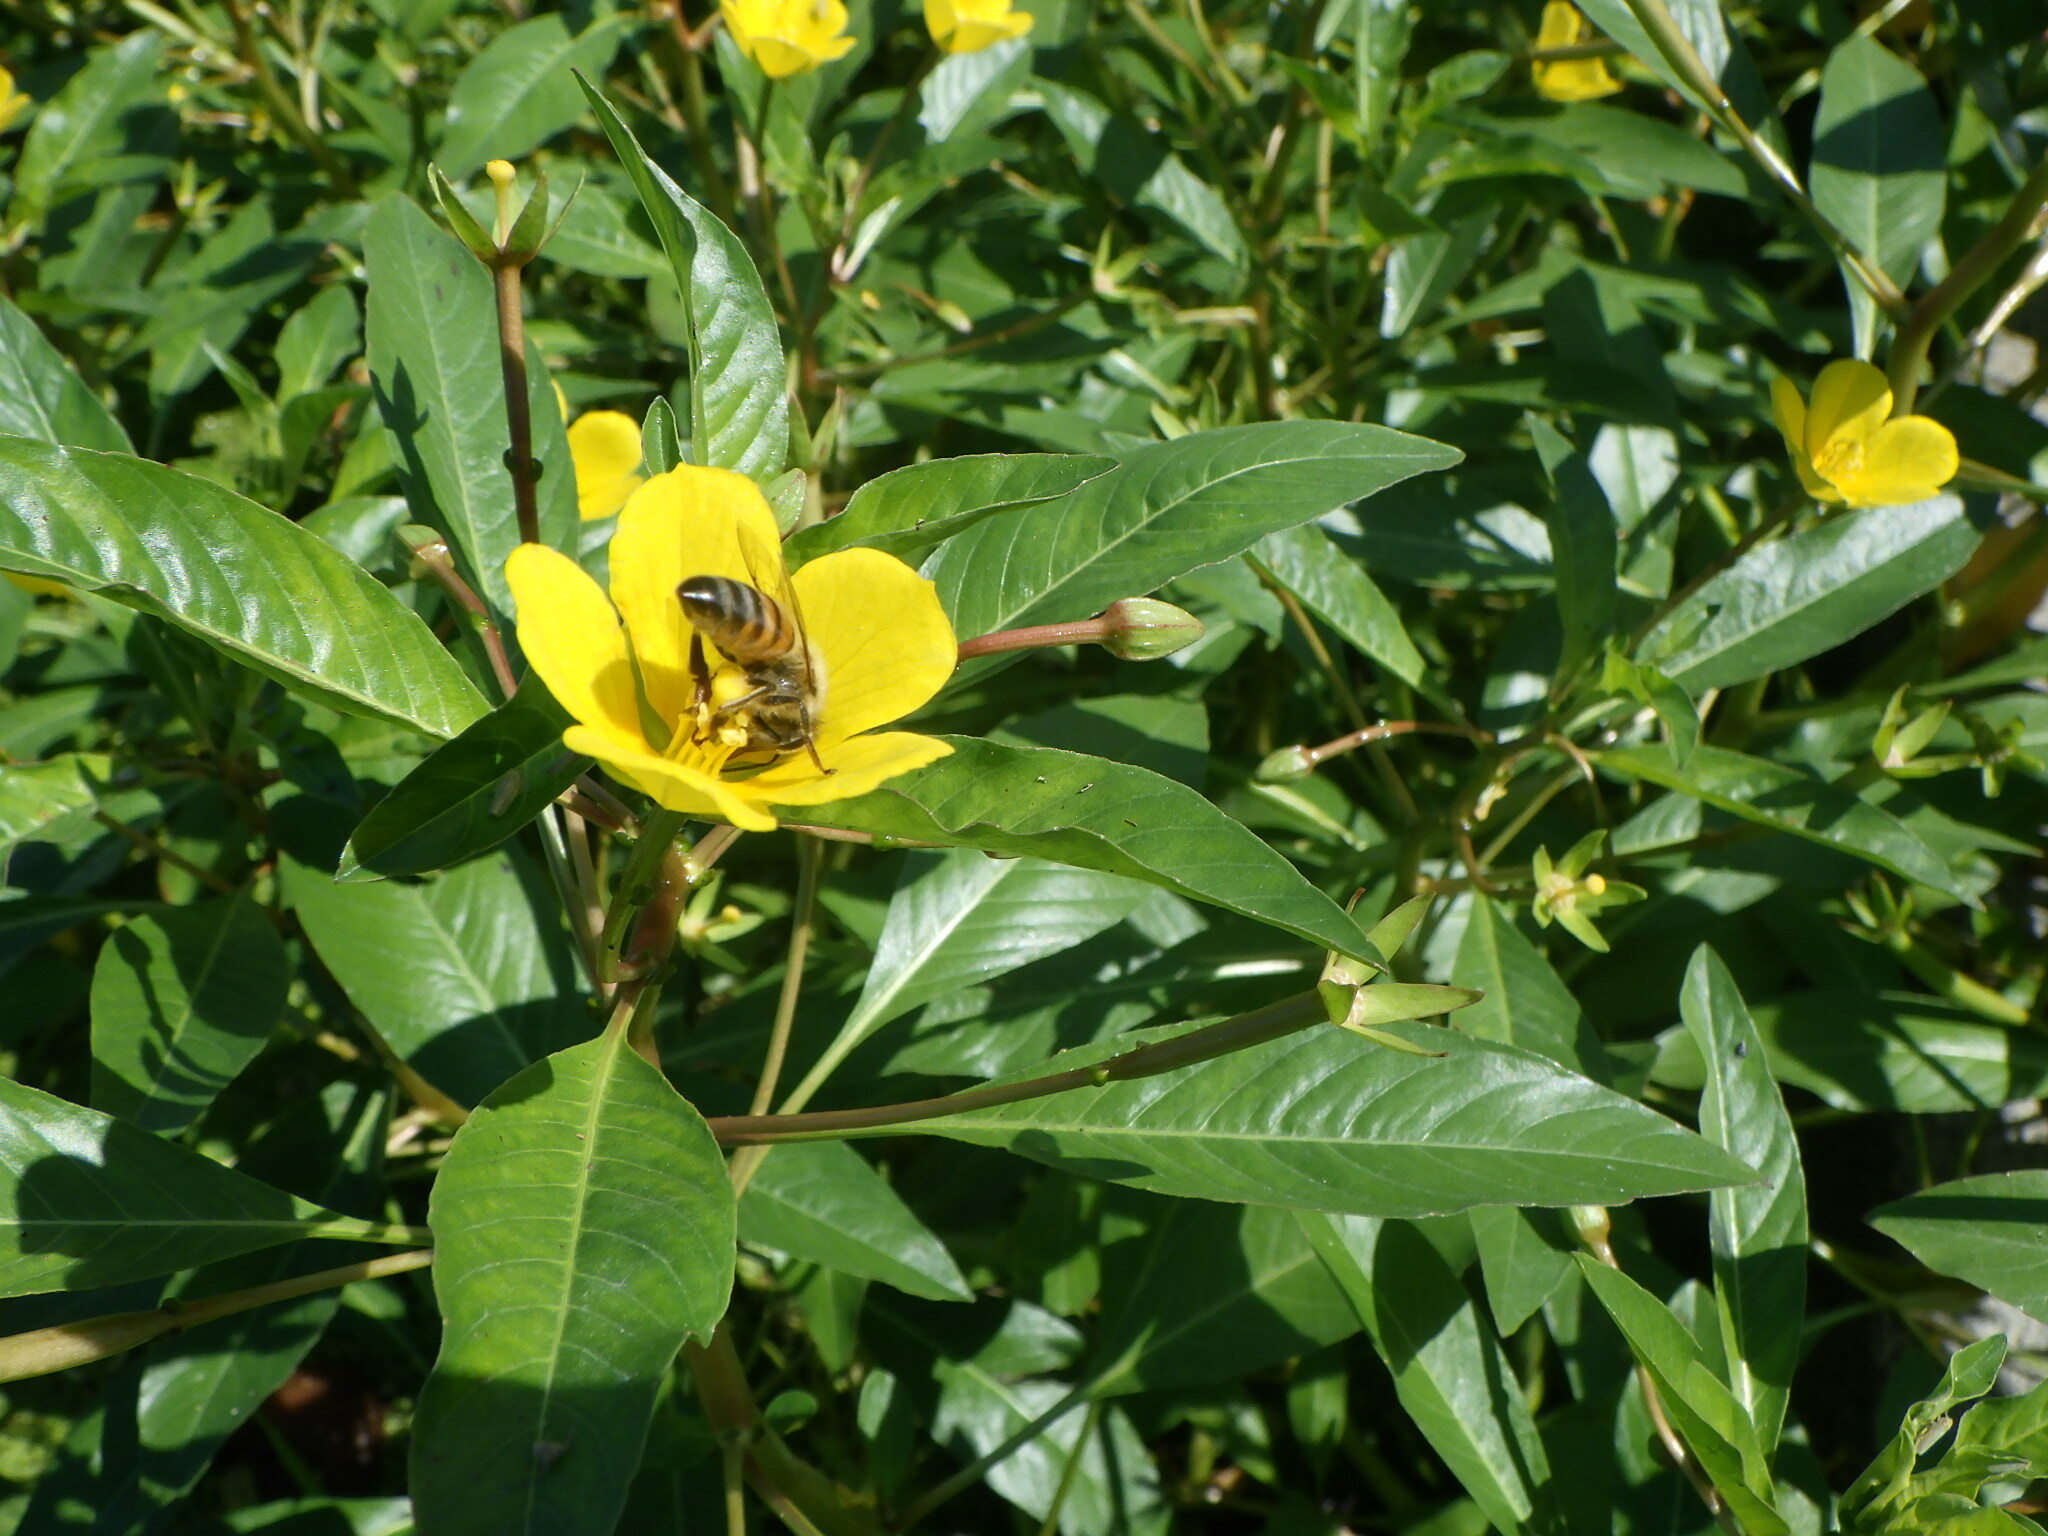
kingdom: Animalia
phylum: Arthropoda
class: Insecta
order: Hymenoptera
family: Apidae
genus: Apis
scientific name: Apis mellifera
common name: Honey bee
